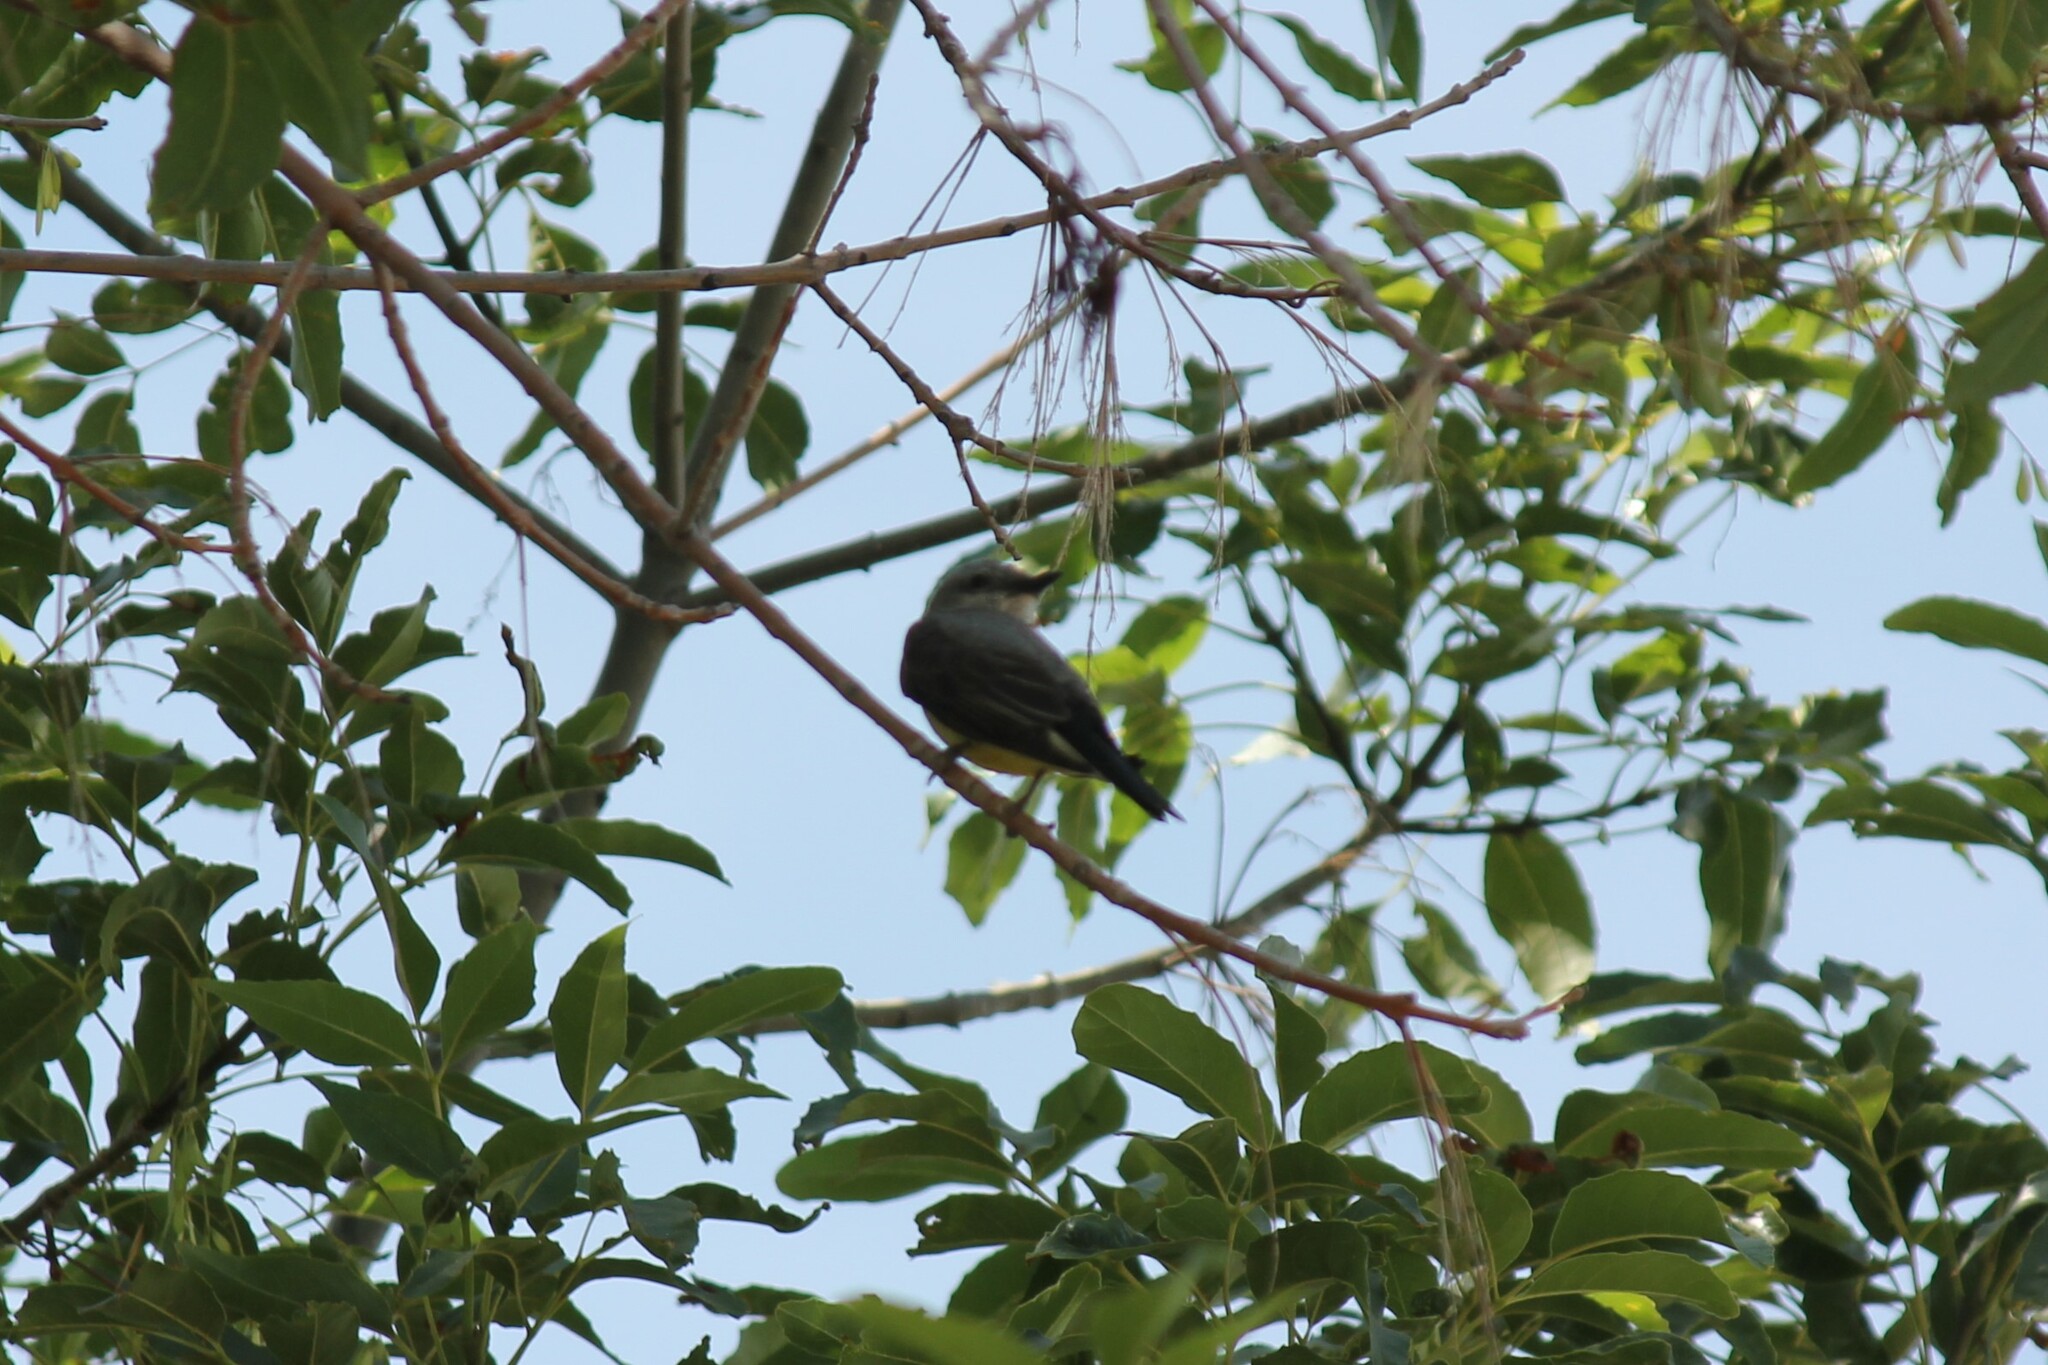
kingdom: Animalia
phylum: Chordata
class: Aves
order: Passeriformes
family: Tyrannidae
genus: Tyrannus
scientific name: Tyrannus verticalis
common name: Western kingbird
